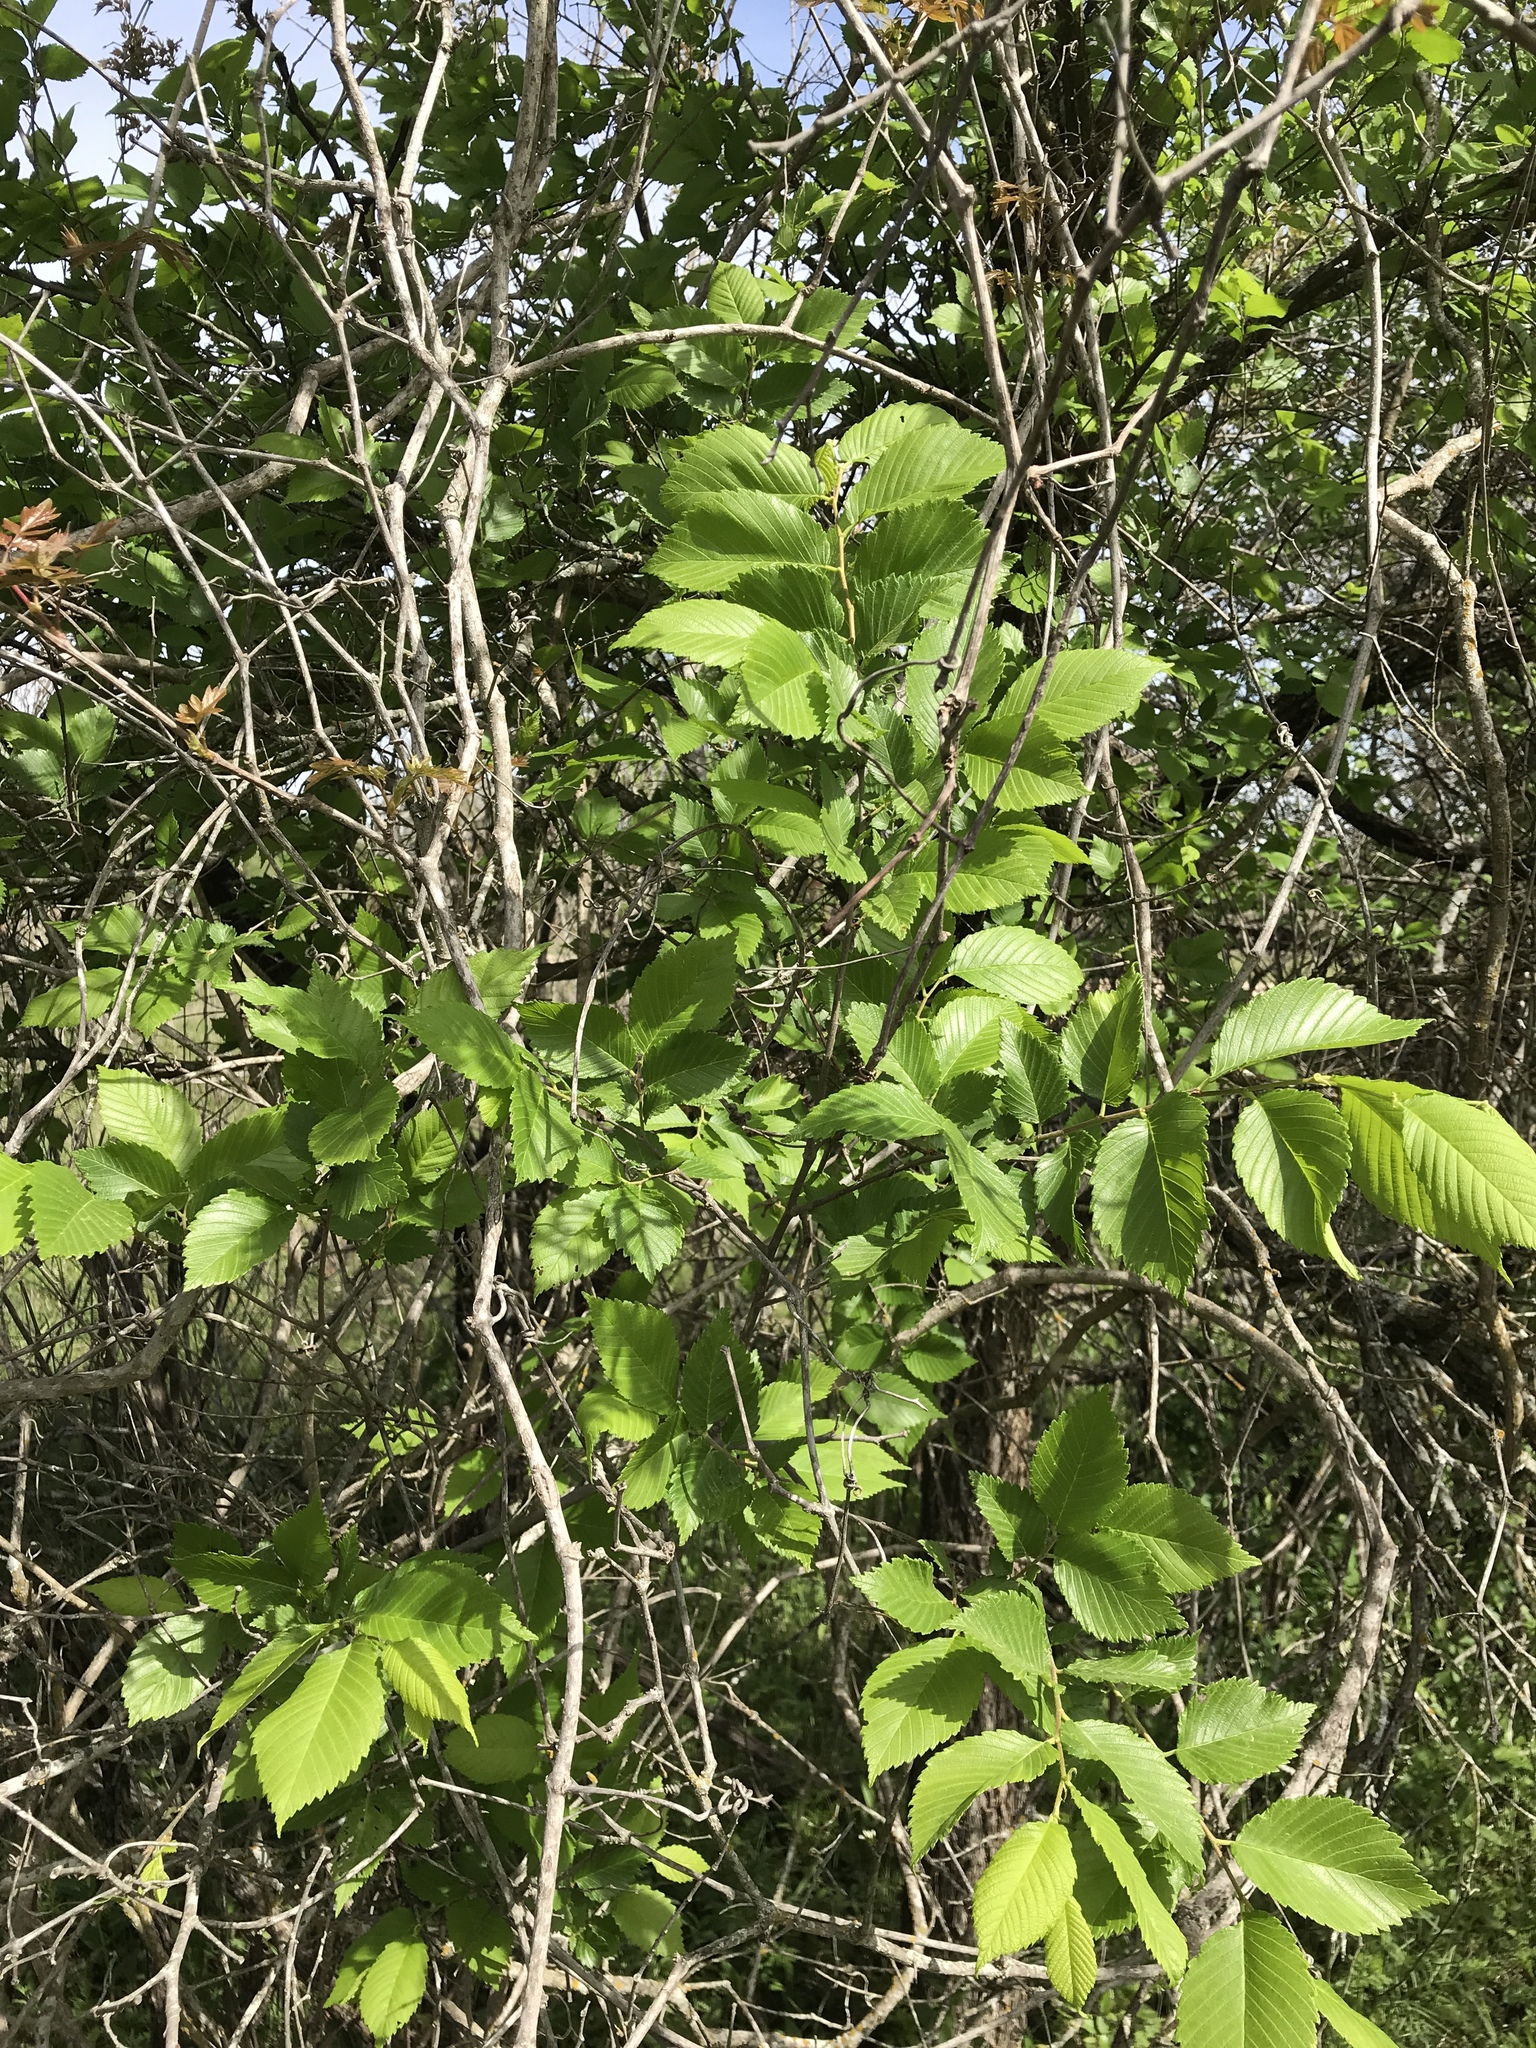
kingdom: Plantae
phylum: Tracheophyta
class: Magnoliopsida
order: Rosales
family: Ulmaceae
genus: Ulmus
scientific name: Ulmus americana
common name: American elm
